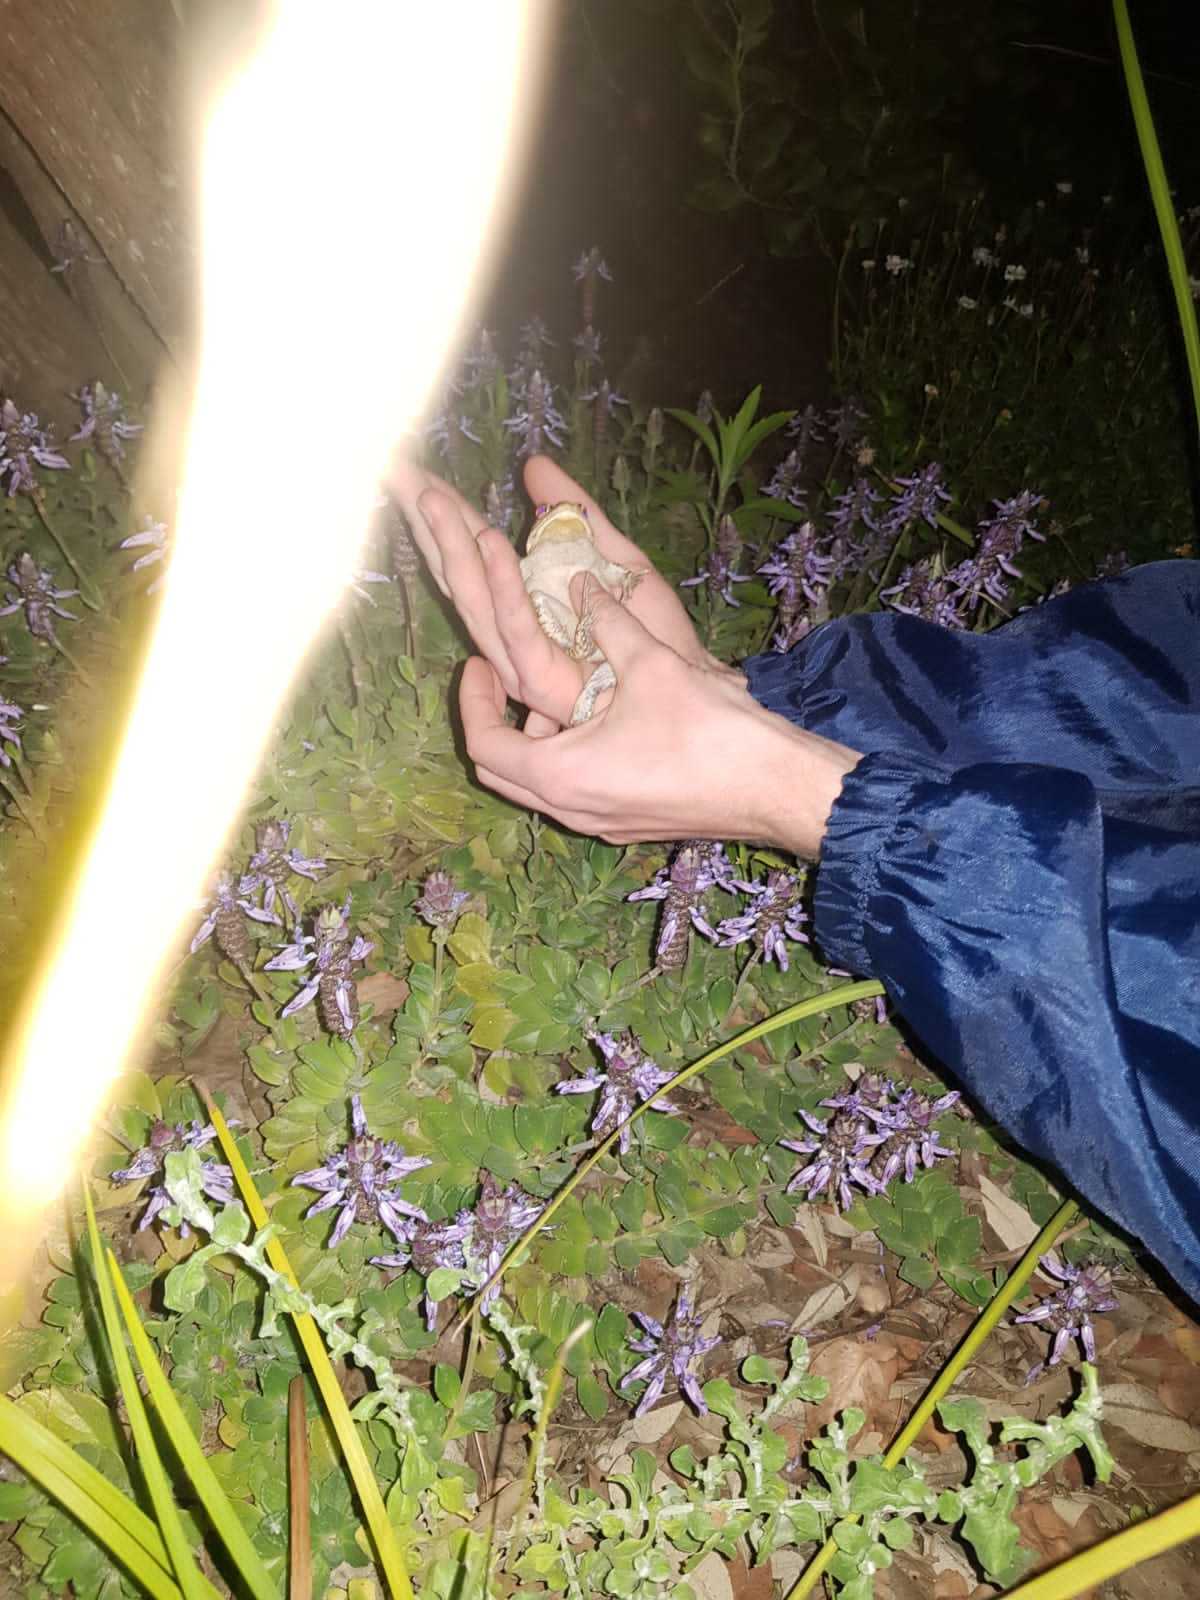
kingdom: Animalia
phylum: Chordata
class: Amphibia
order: Anura
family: Bufonidae
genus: Sclerophrys
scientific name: Sclerophrys capensis
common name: Ranger’s toad
